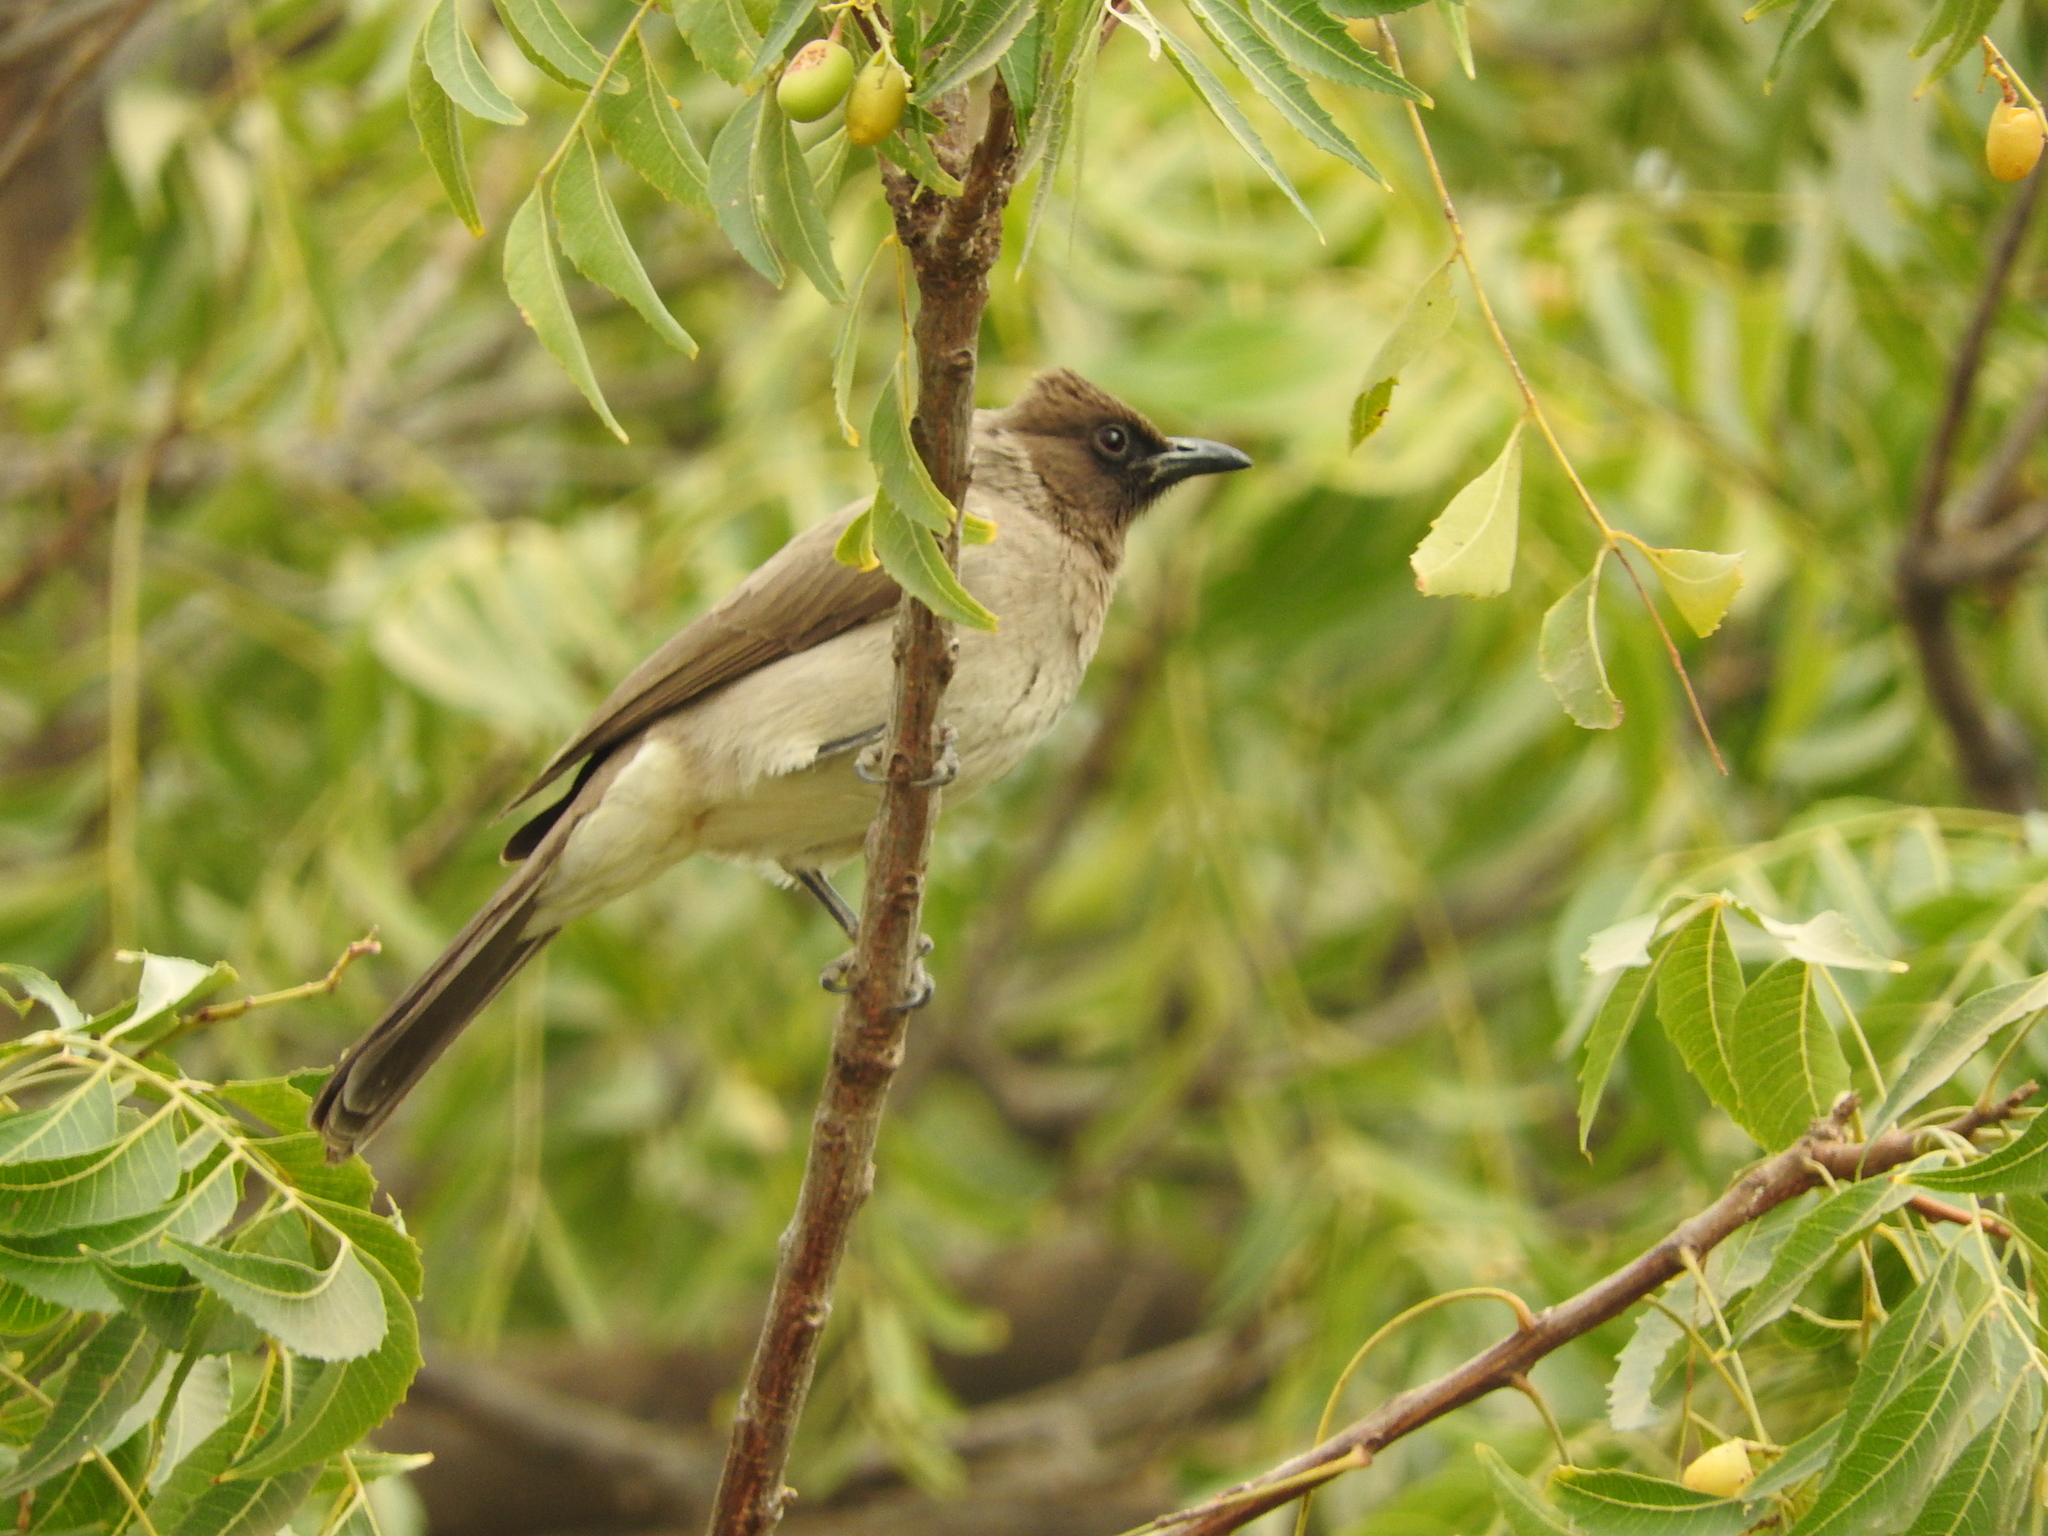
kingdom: Animalia
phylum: Chordata
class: Aves
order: Passeriformes
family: Pycnonotidae
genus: Pycnonotus
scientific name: Pycnonotus barbatus
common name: Common bulbul
